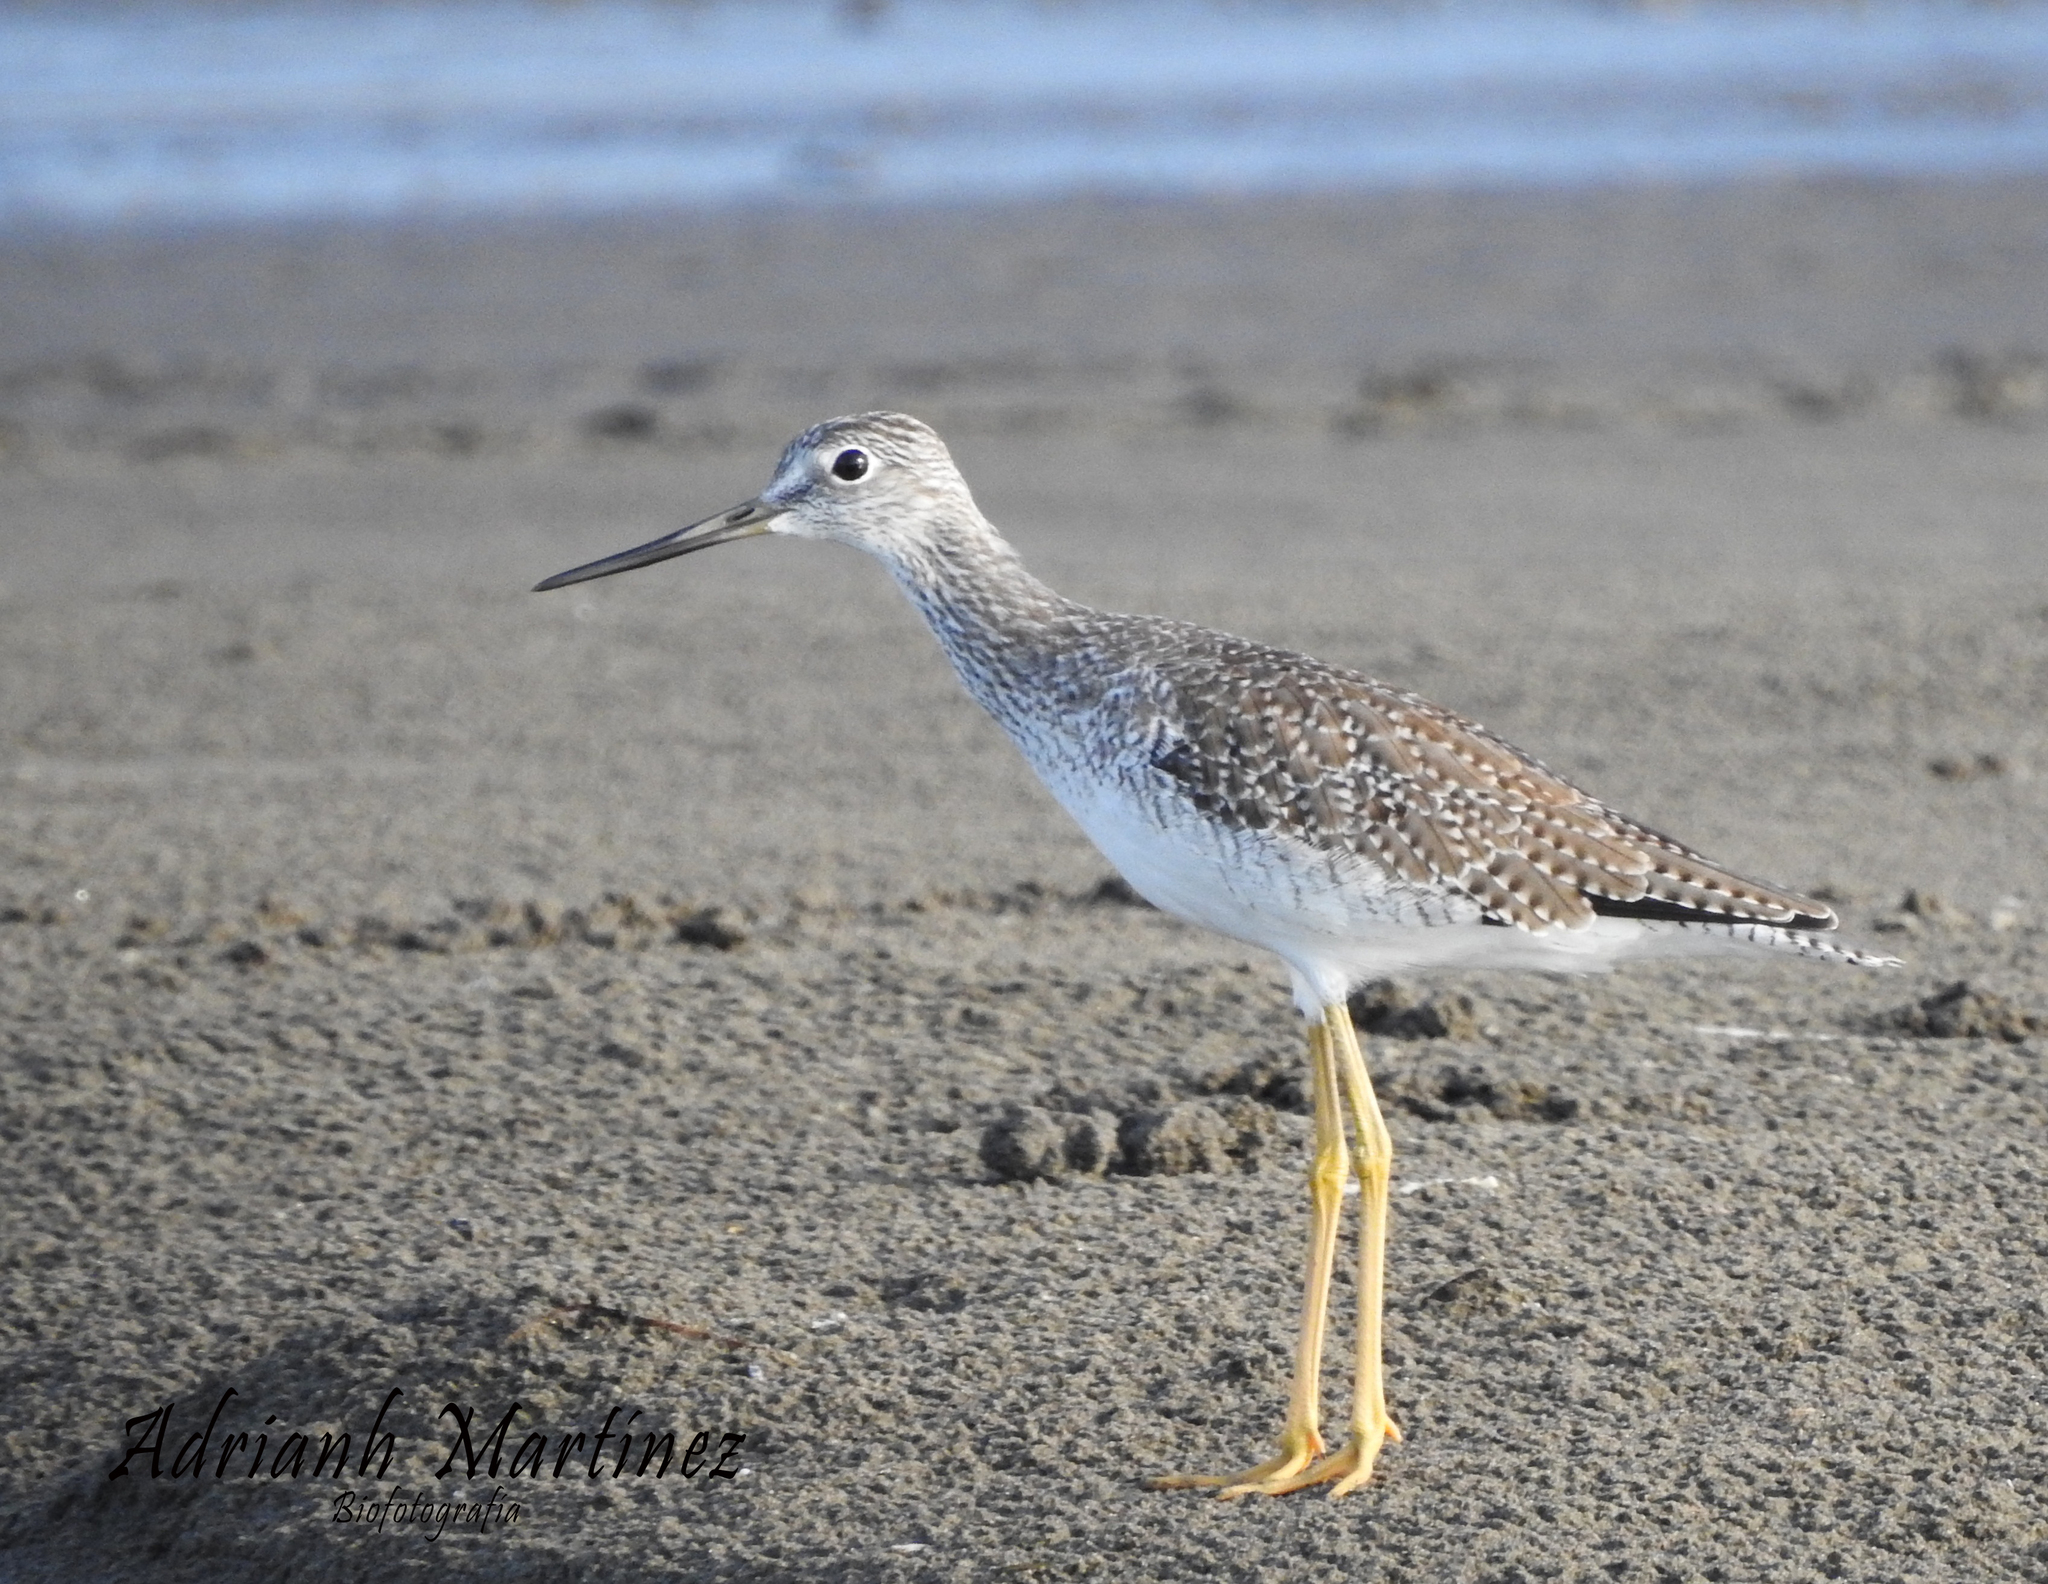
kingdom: Animalia
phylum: Chordata
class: Aves
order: Charadriiformes
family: Scolopacidae
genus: Tringa
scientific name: Tringa melanoleuca
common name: Greater yellowlegs
